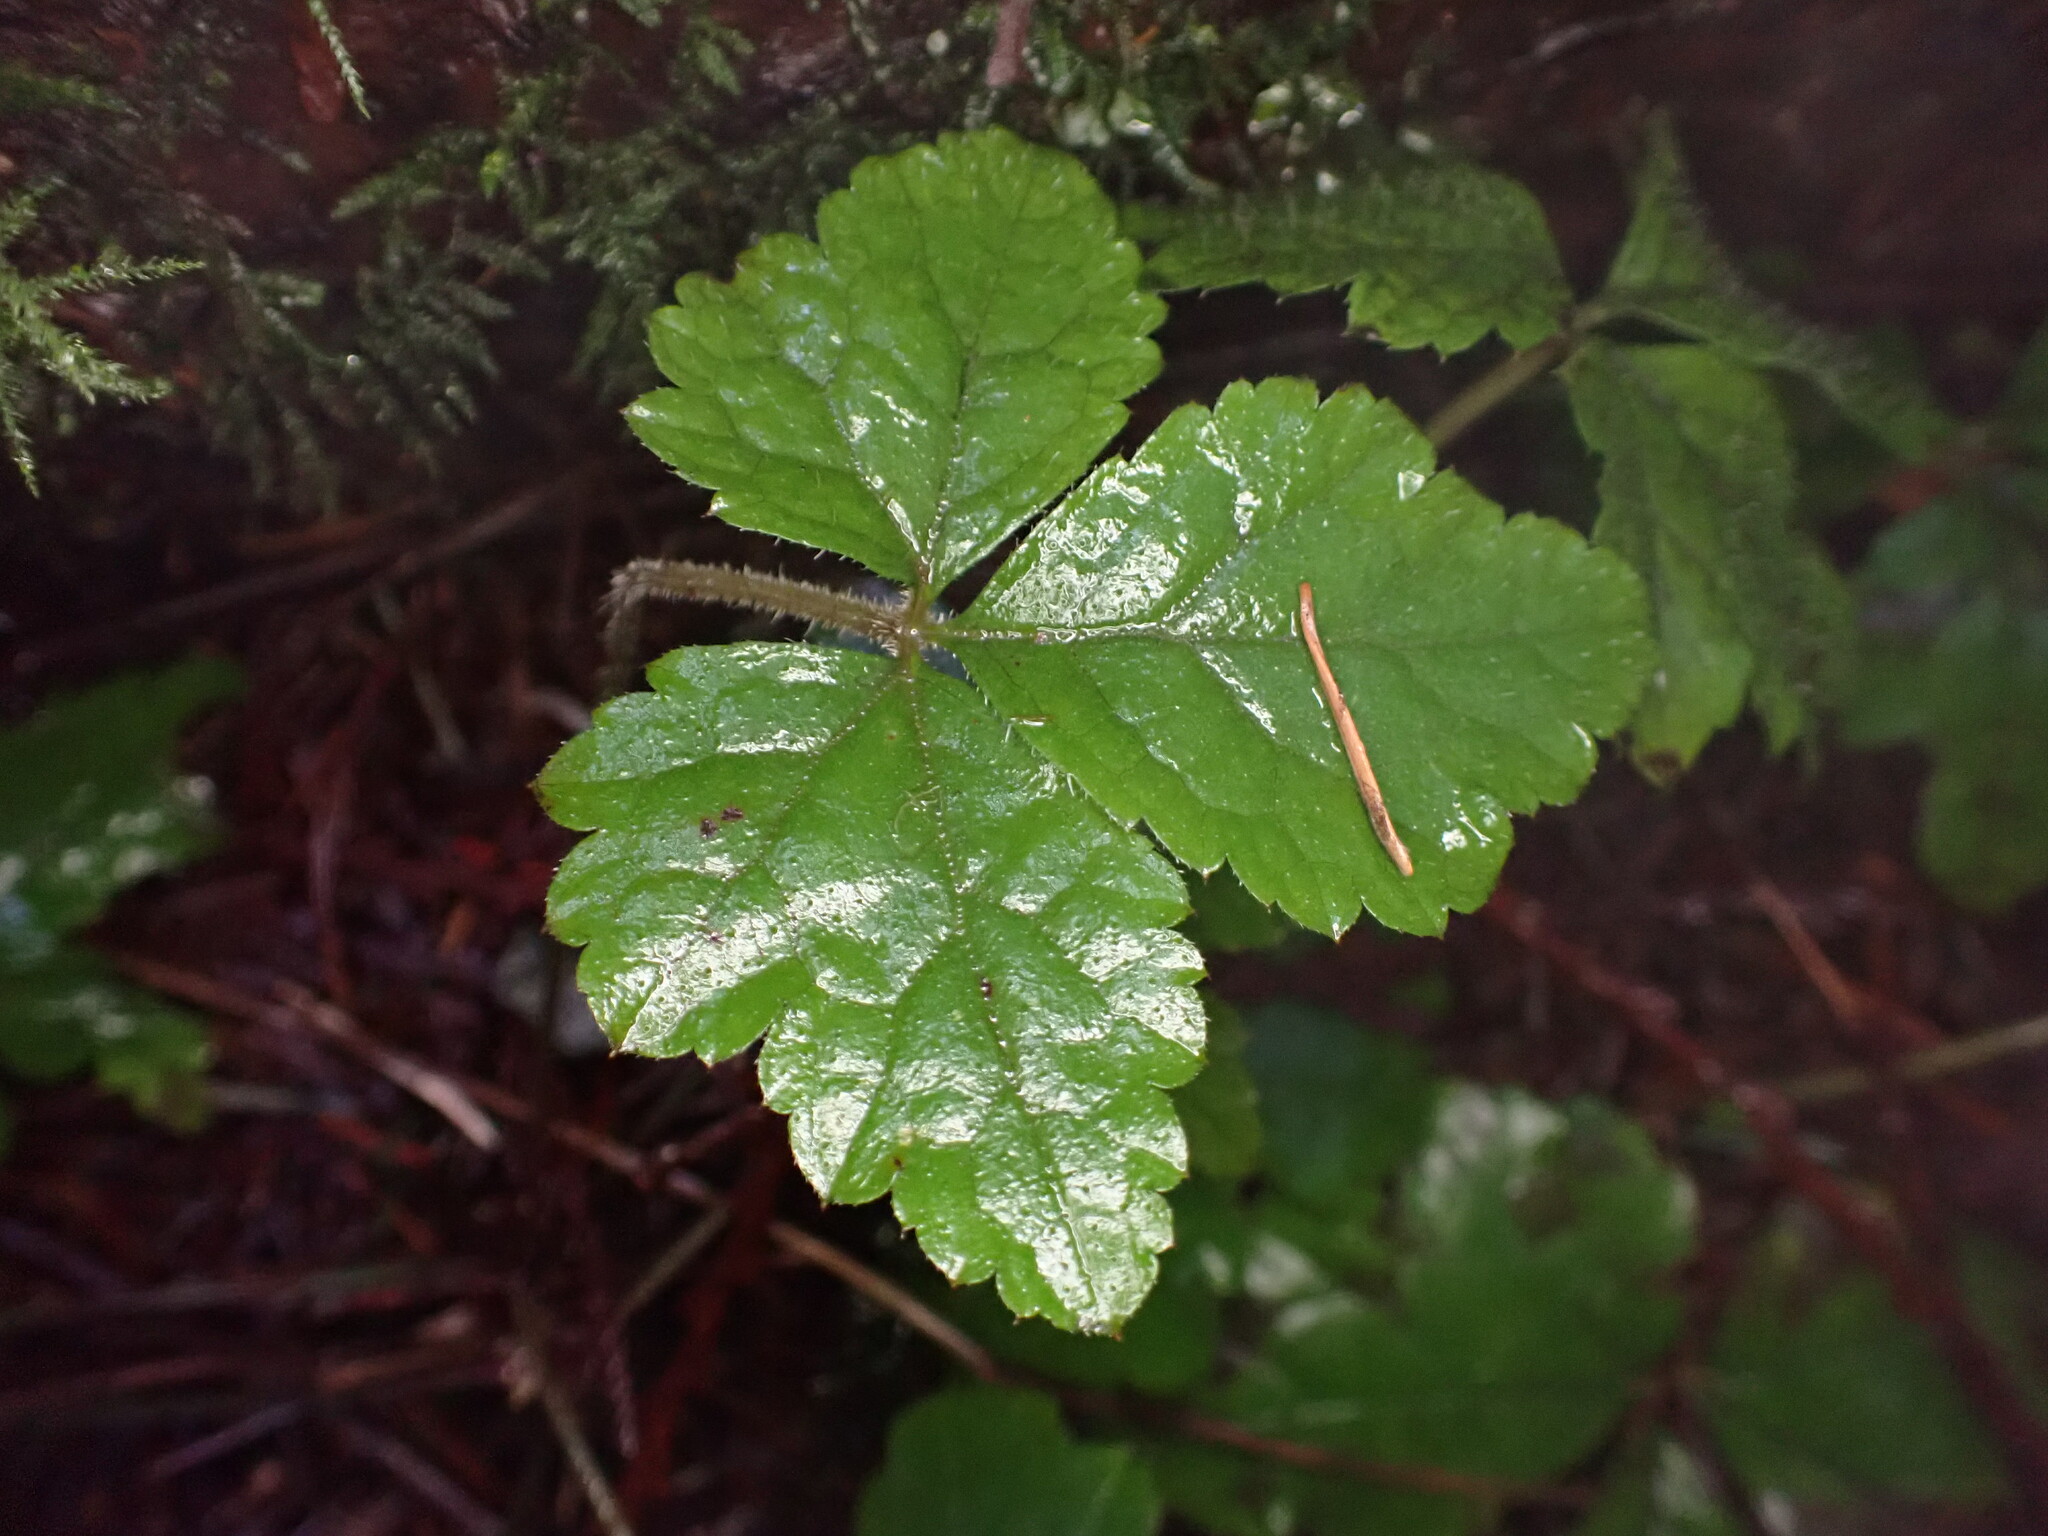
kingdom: Plantae
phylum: Tracheophyta
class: Magnoliopsida
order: Saxifragales
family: Saxifragaceae
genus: Tiarella
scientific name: Tiarella trifoliata
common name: Sugar-scoop
